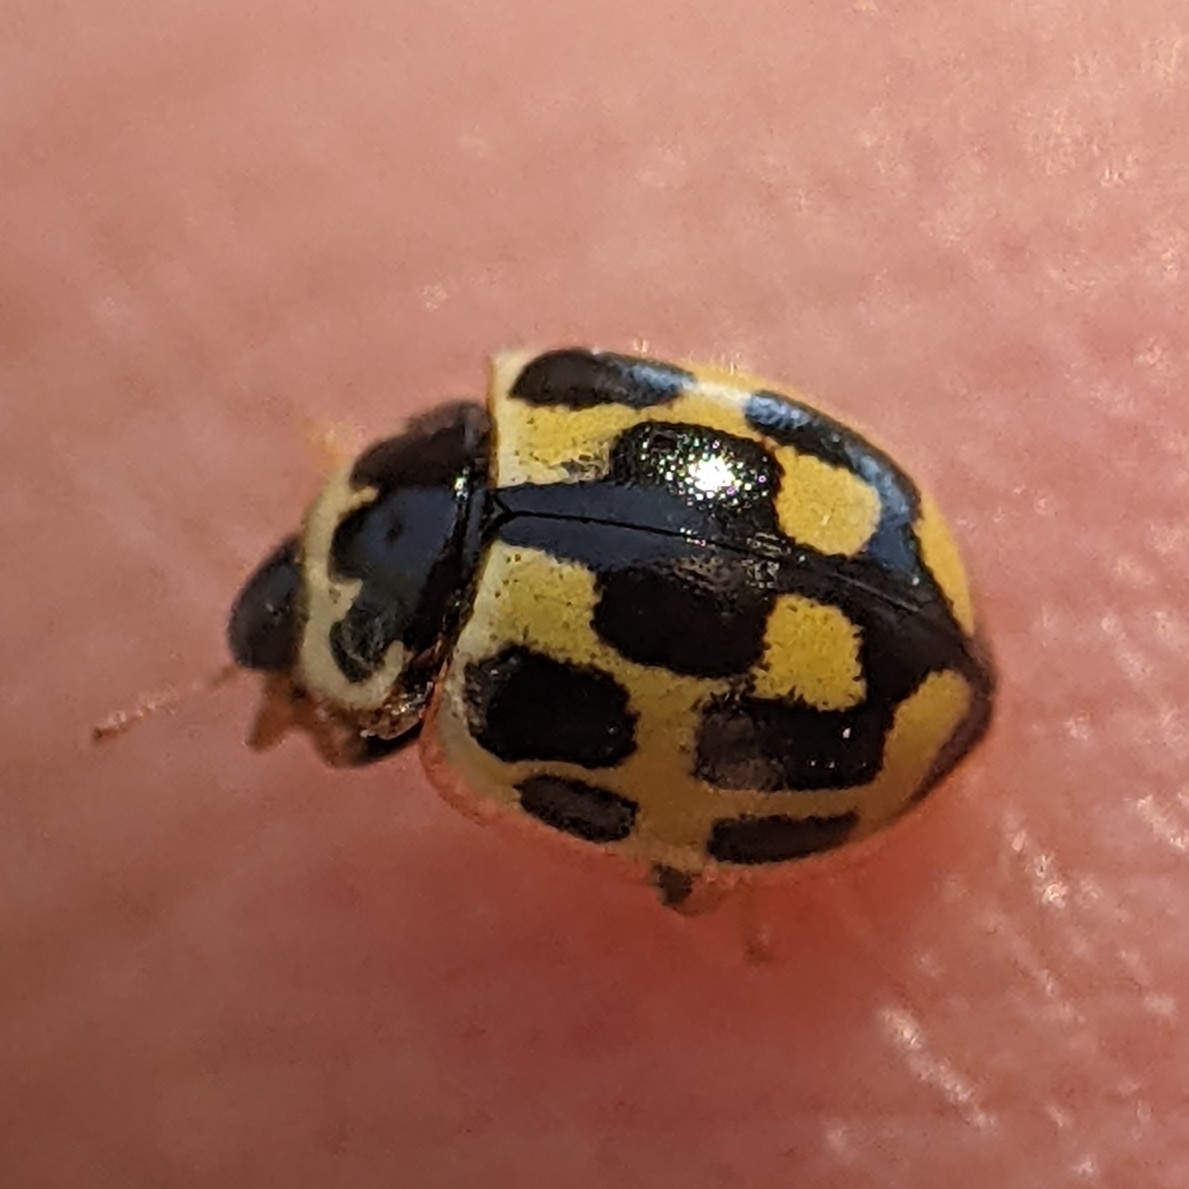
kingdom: Animalia
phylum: Arthropoda
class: Insecta
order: Coleoptera
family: Coccinellidae
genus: Propylaea
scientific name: Propylaea quatuordecimpunctata
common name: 14-spotted ladybird beetle
